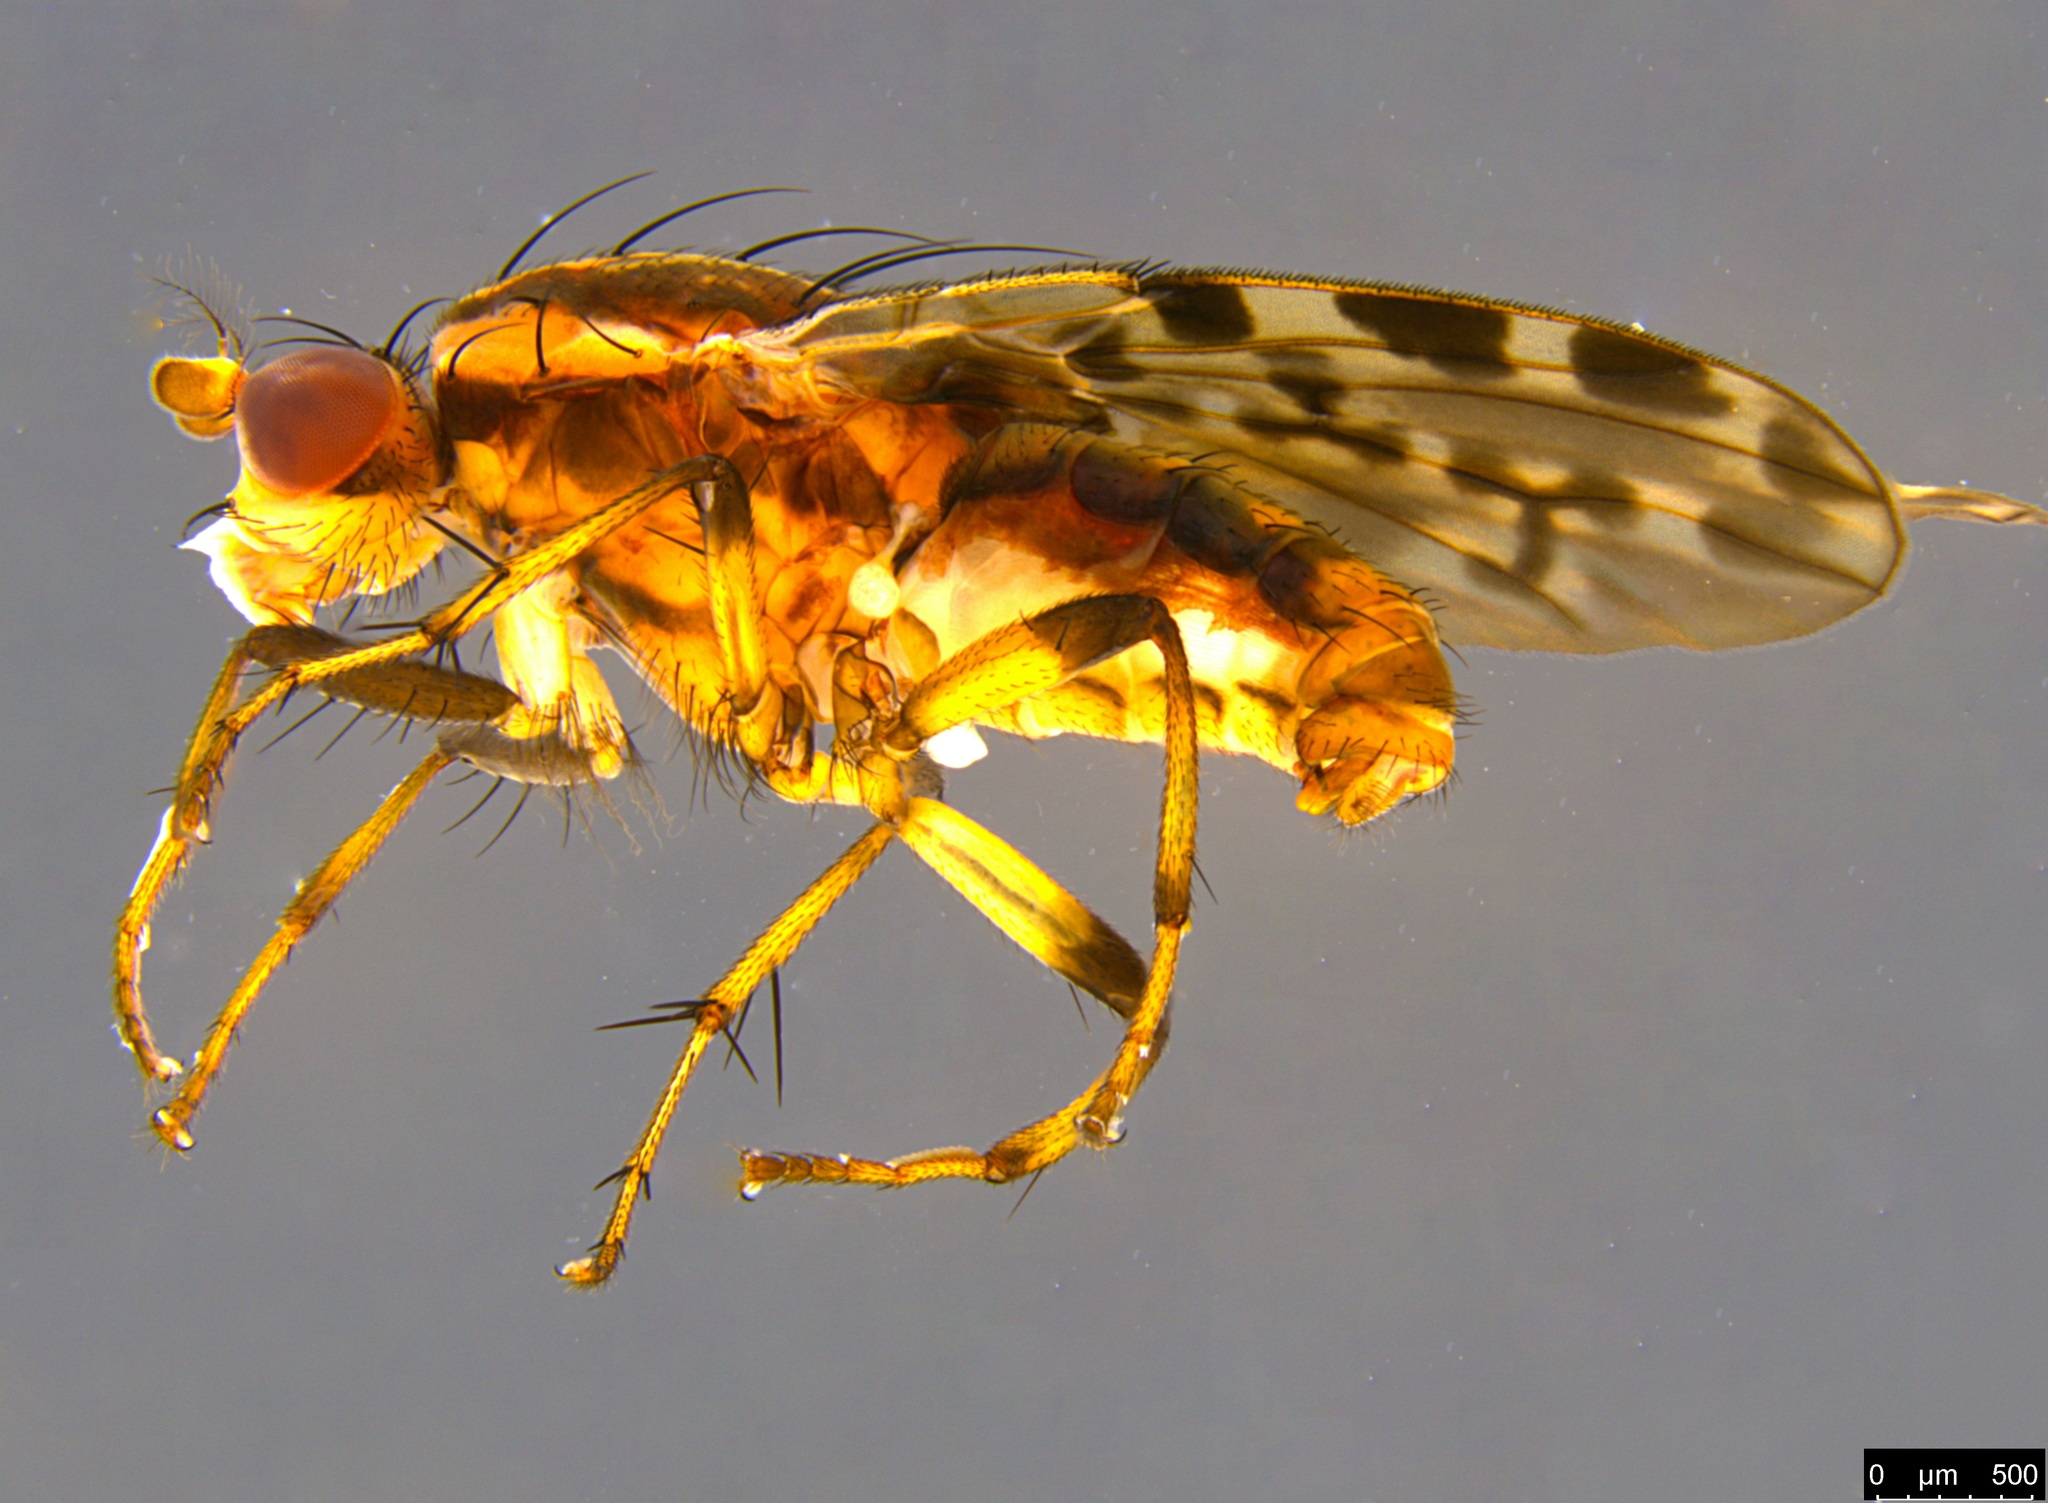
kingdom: Animalia
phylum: Arthropoda
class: Insecta
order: Diptera
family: Heleomyzidae
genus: Diplogeomyza
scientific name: Diplogeomyza maculipennis
